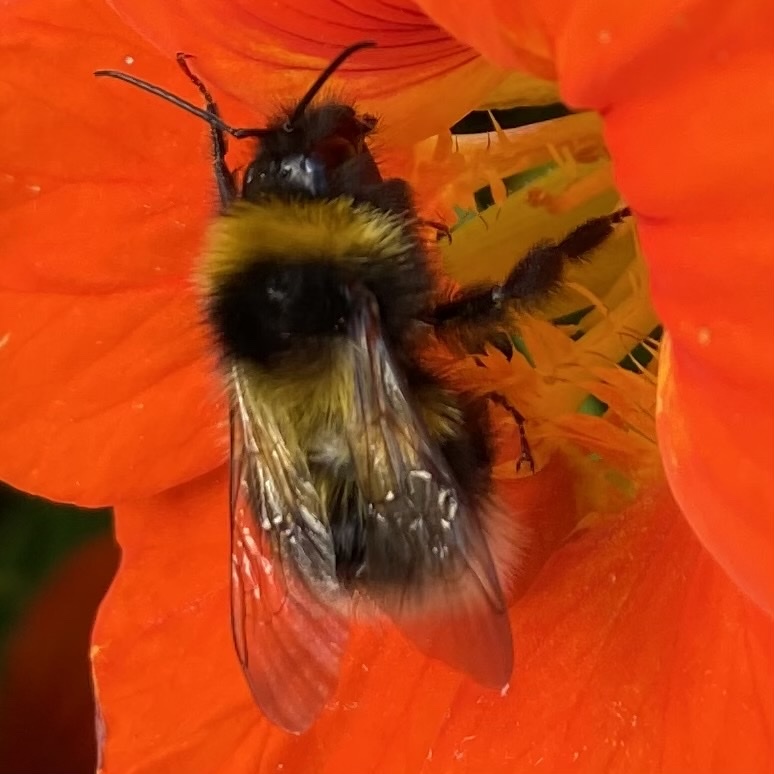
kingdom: Animalia
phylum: Arthropoda
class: Insecta
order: Hymenoptera
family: Apidae
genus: Bombus
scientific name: Bombus hortorum
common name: Garden bumblebee
